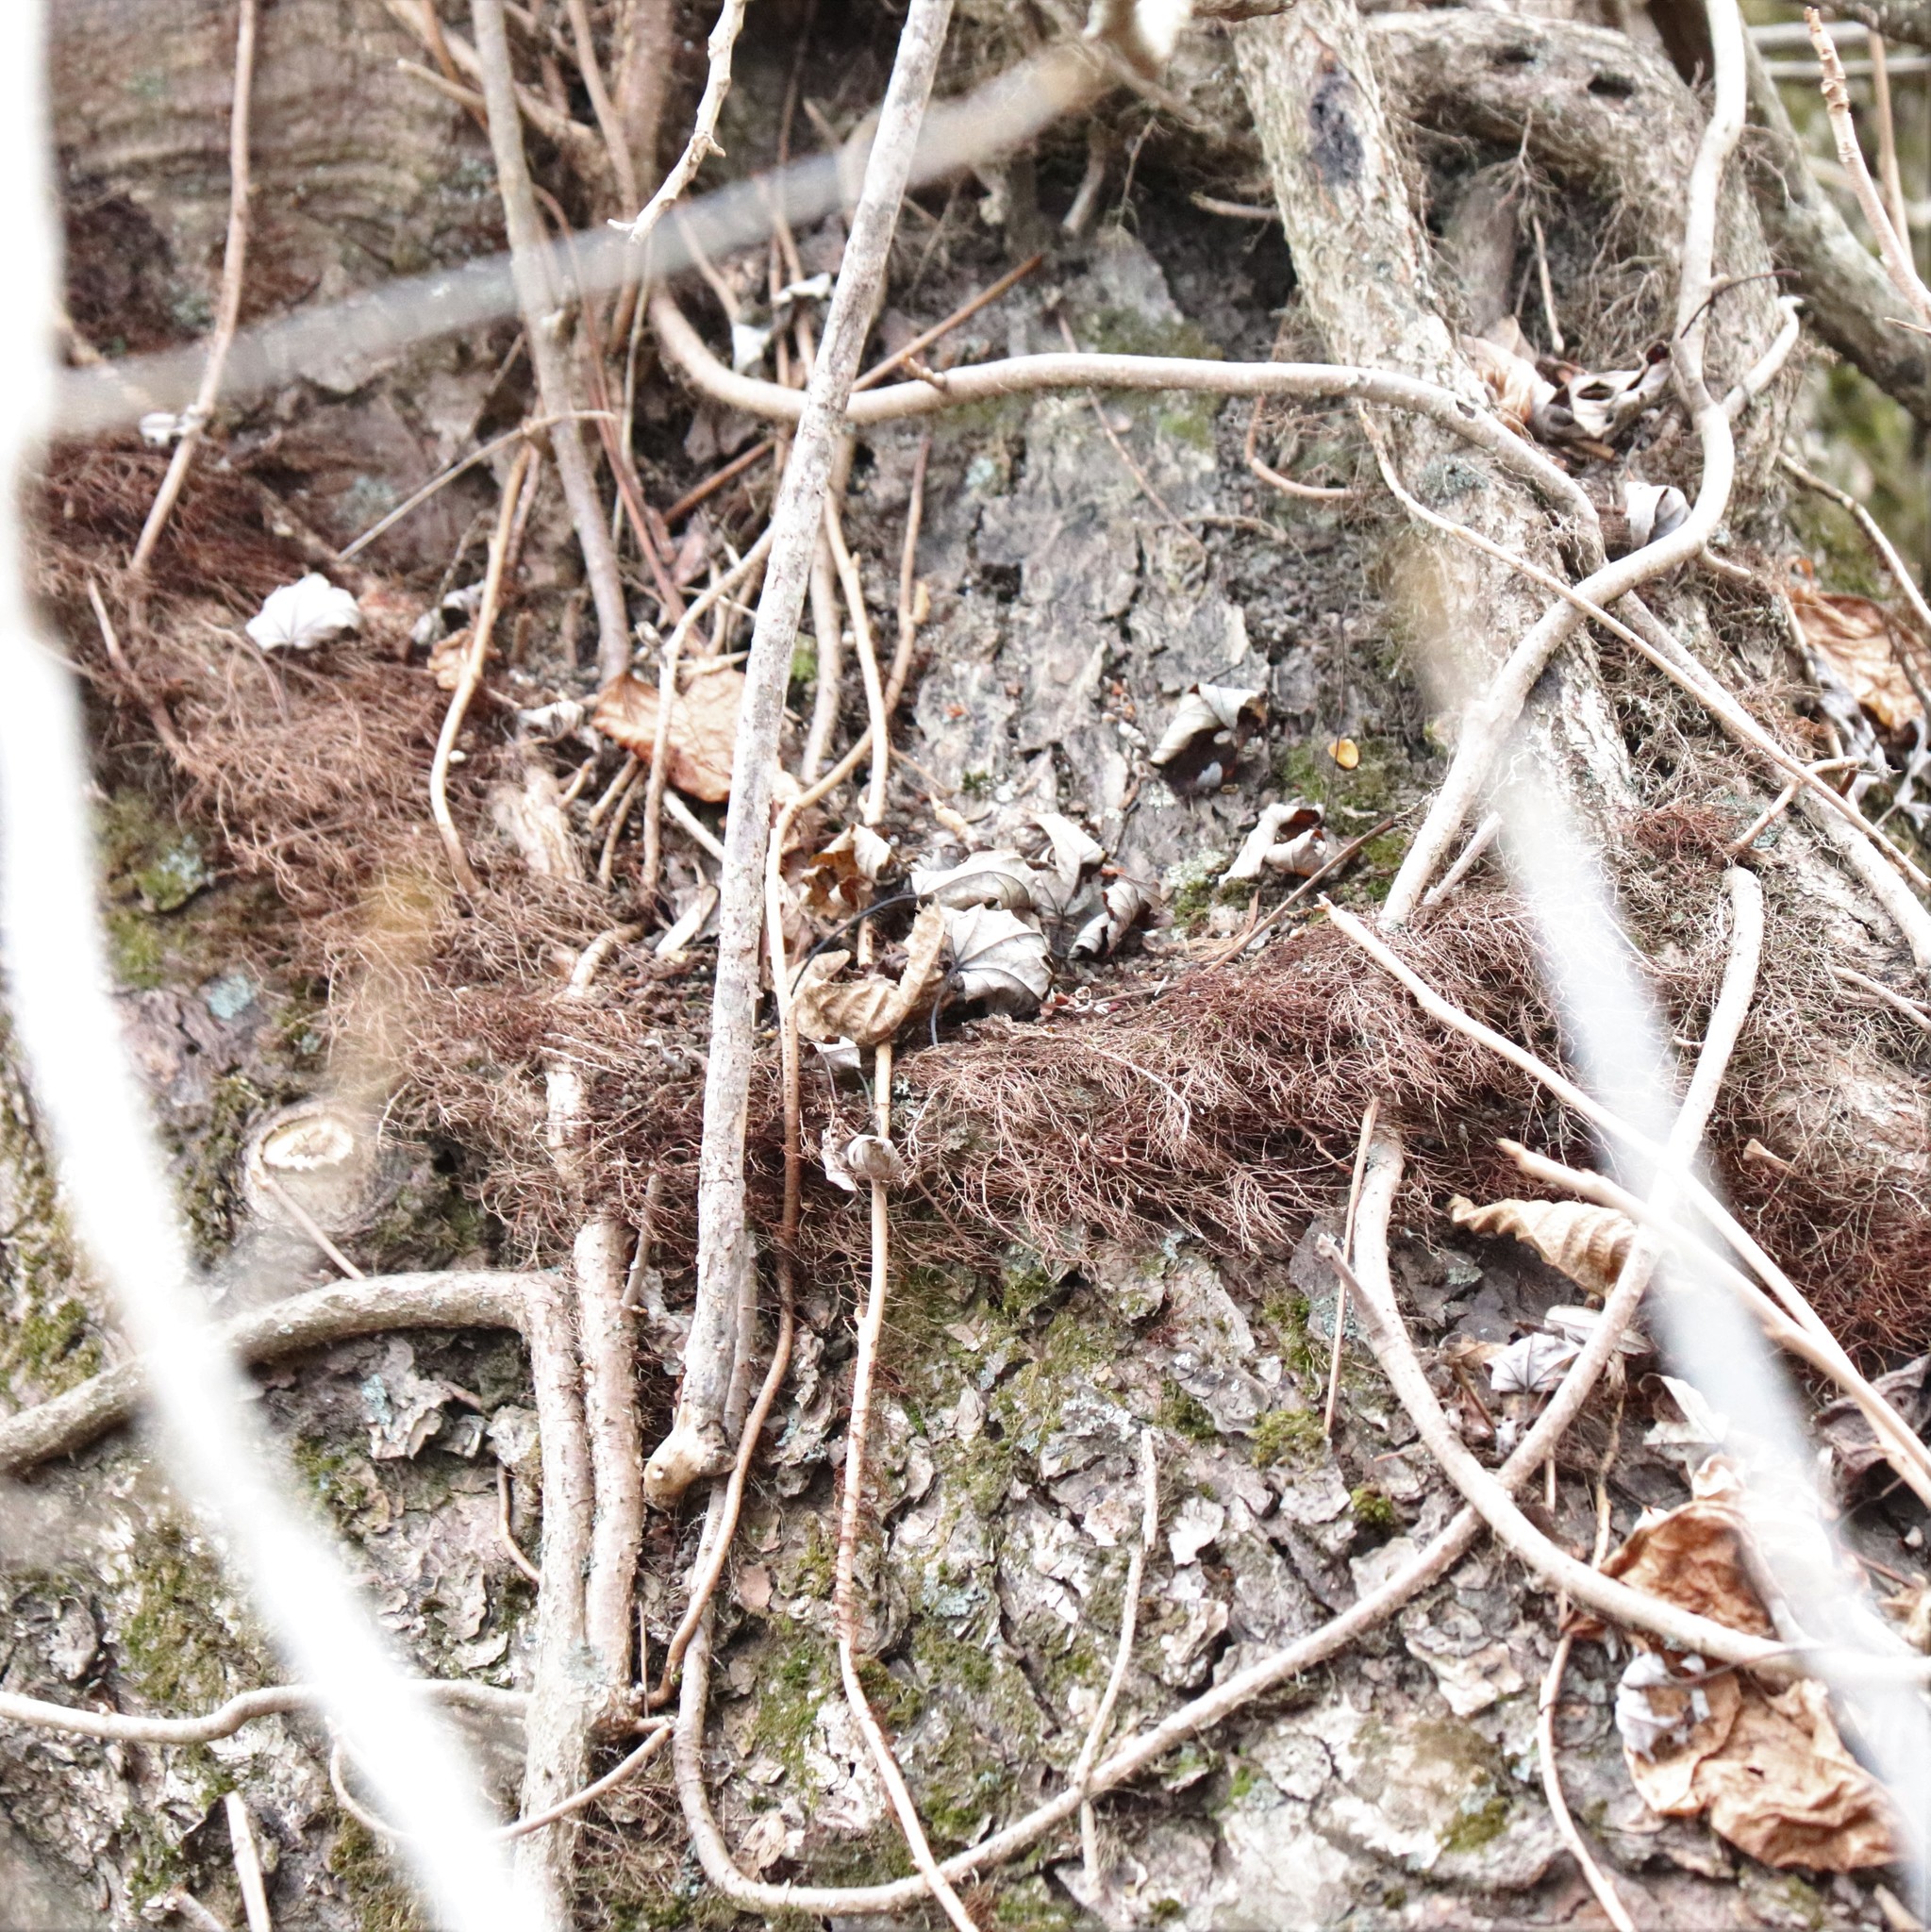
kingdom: Plantae
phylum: Tracheophyta
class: Magnoliopsida
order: Sapindales
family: Anacardiaceae
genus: Toxicodendron
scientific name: Toxicodendron radicans
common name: Poison ivy
